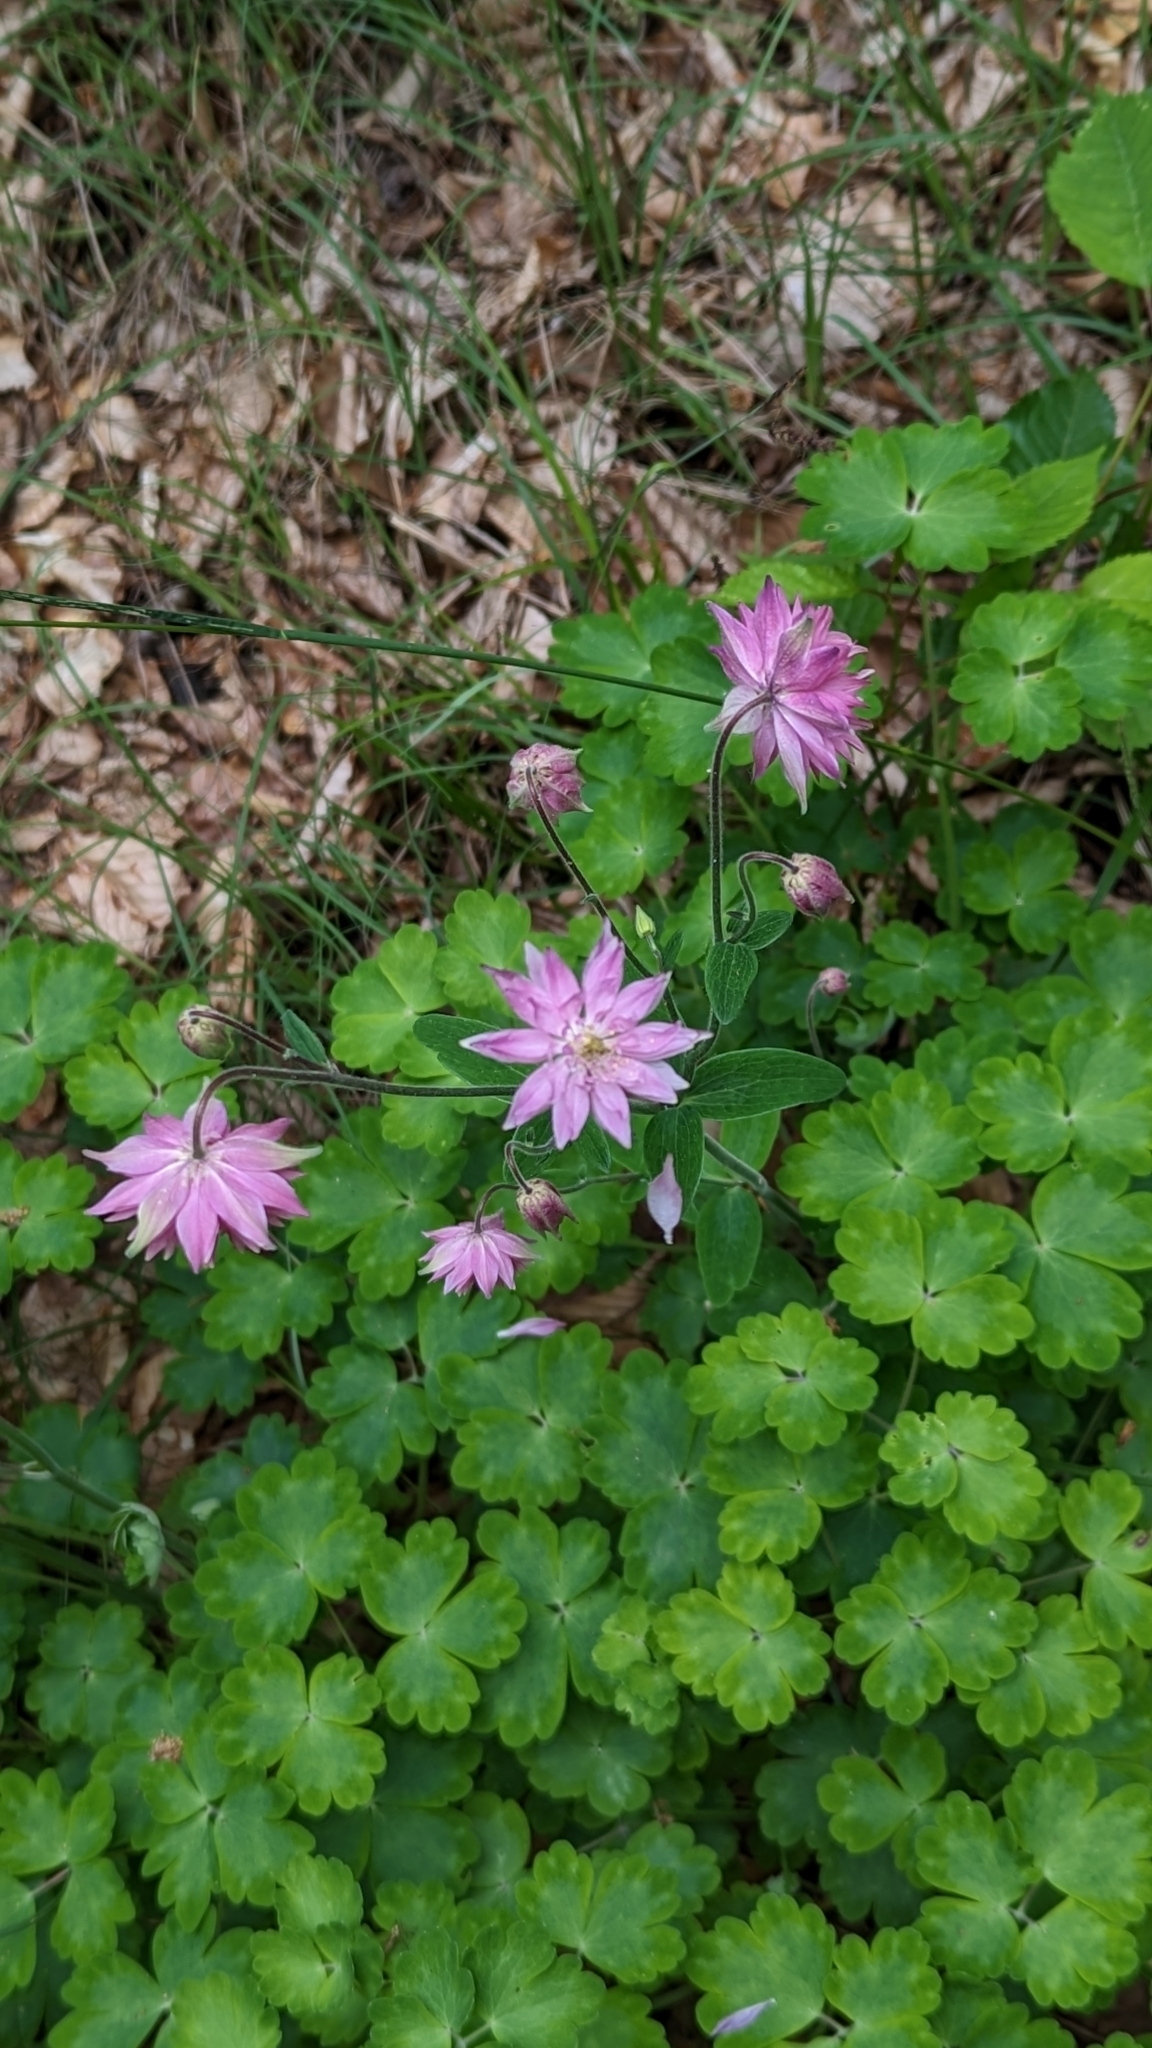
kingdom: Plantae
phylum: Tracheophyta
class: Magnoliopsida
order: Ranunculales
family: Ranunculaceae
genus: Aquilegia
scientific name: Aquilegia vulgaris
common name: Columbine
